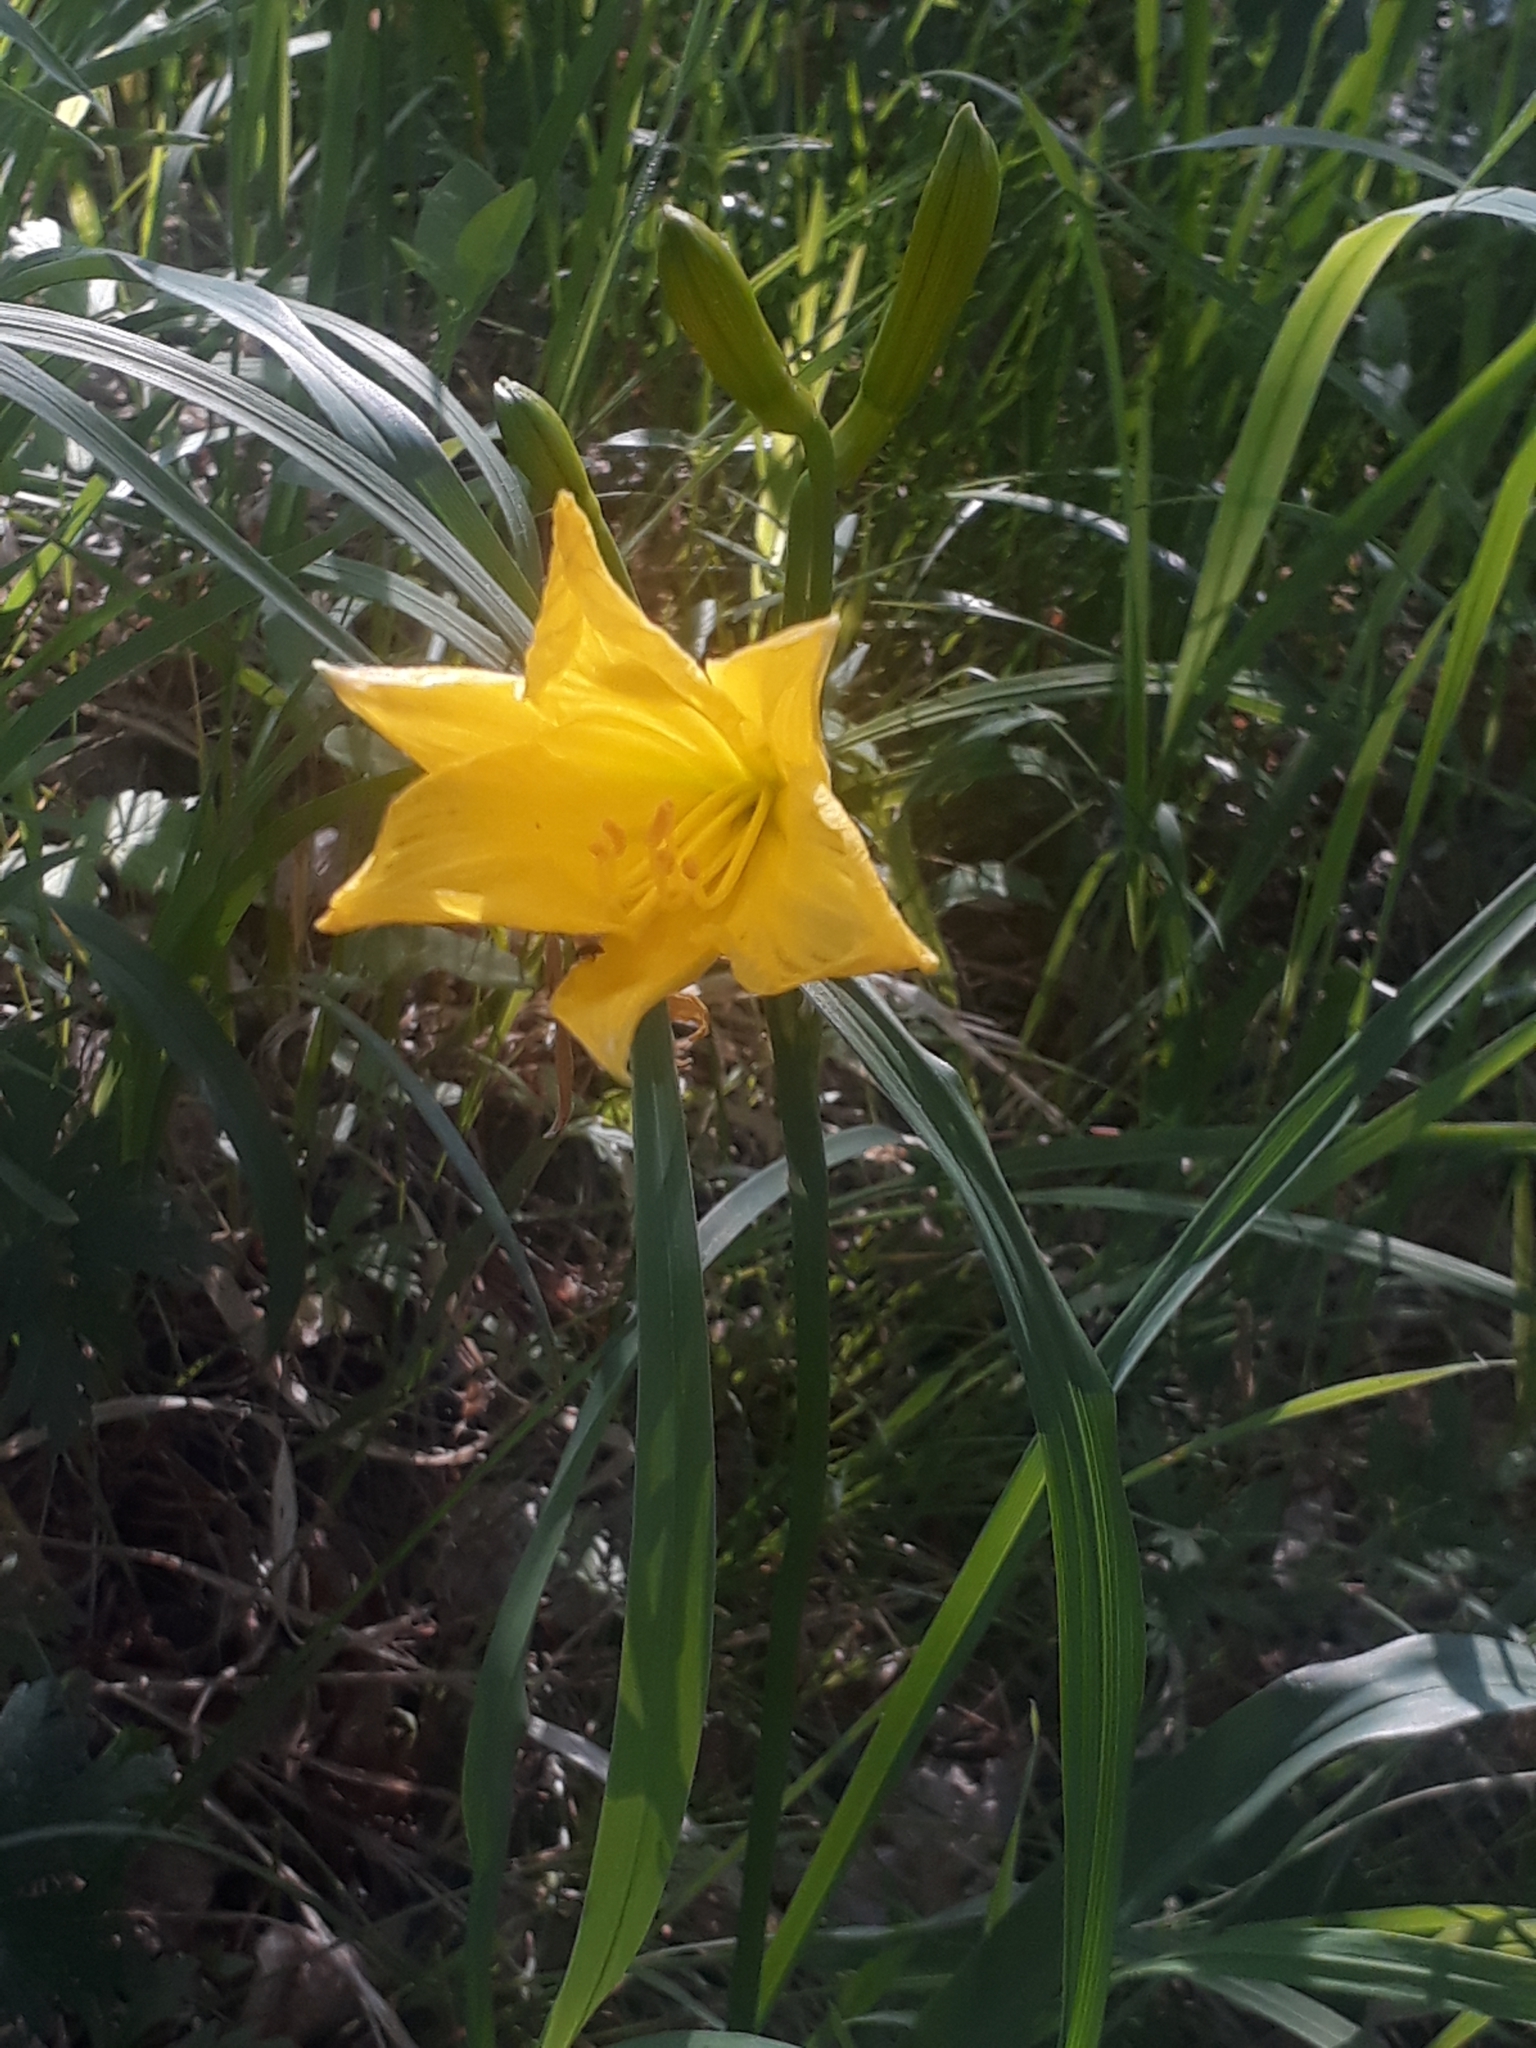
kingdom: Plantae
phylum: Tracheophyta
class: Liliopsida
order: Asparagales
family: Asphodelaceae
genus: Hemerocallis
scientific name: Hemerocallis minor
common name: Small daylily
